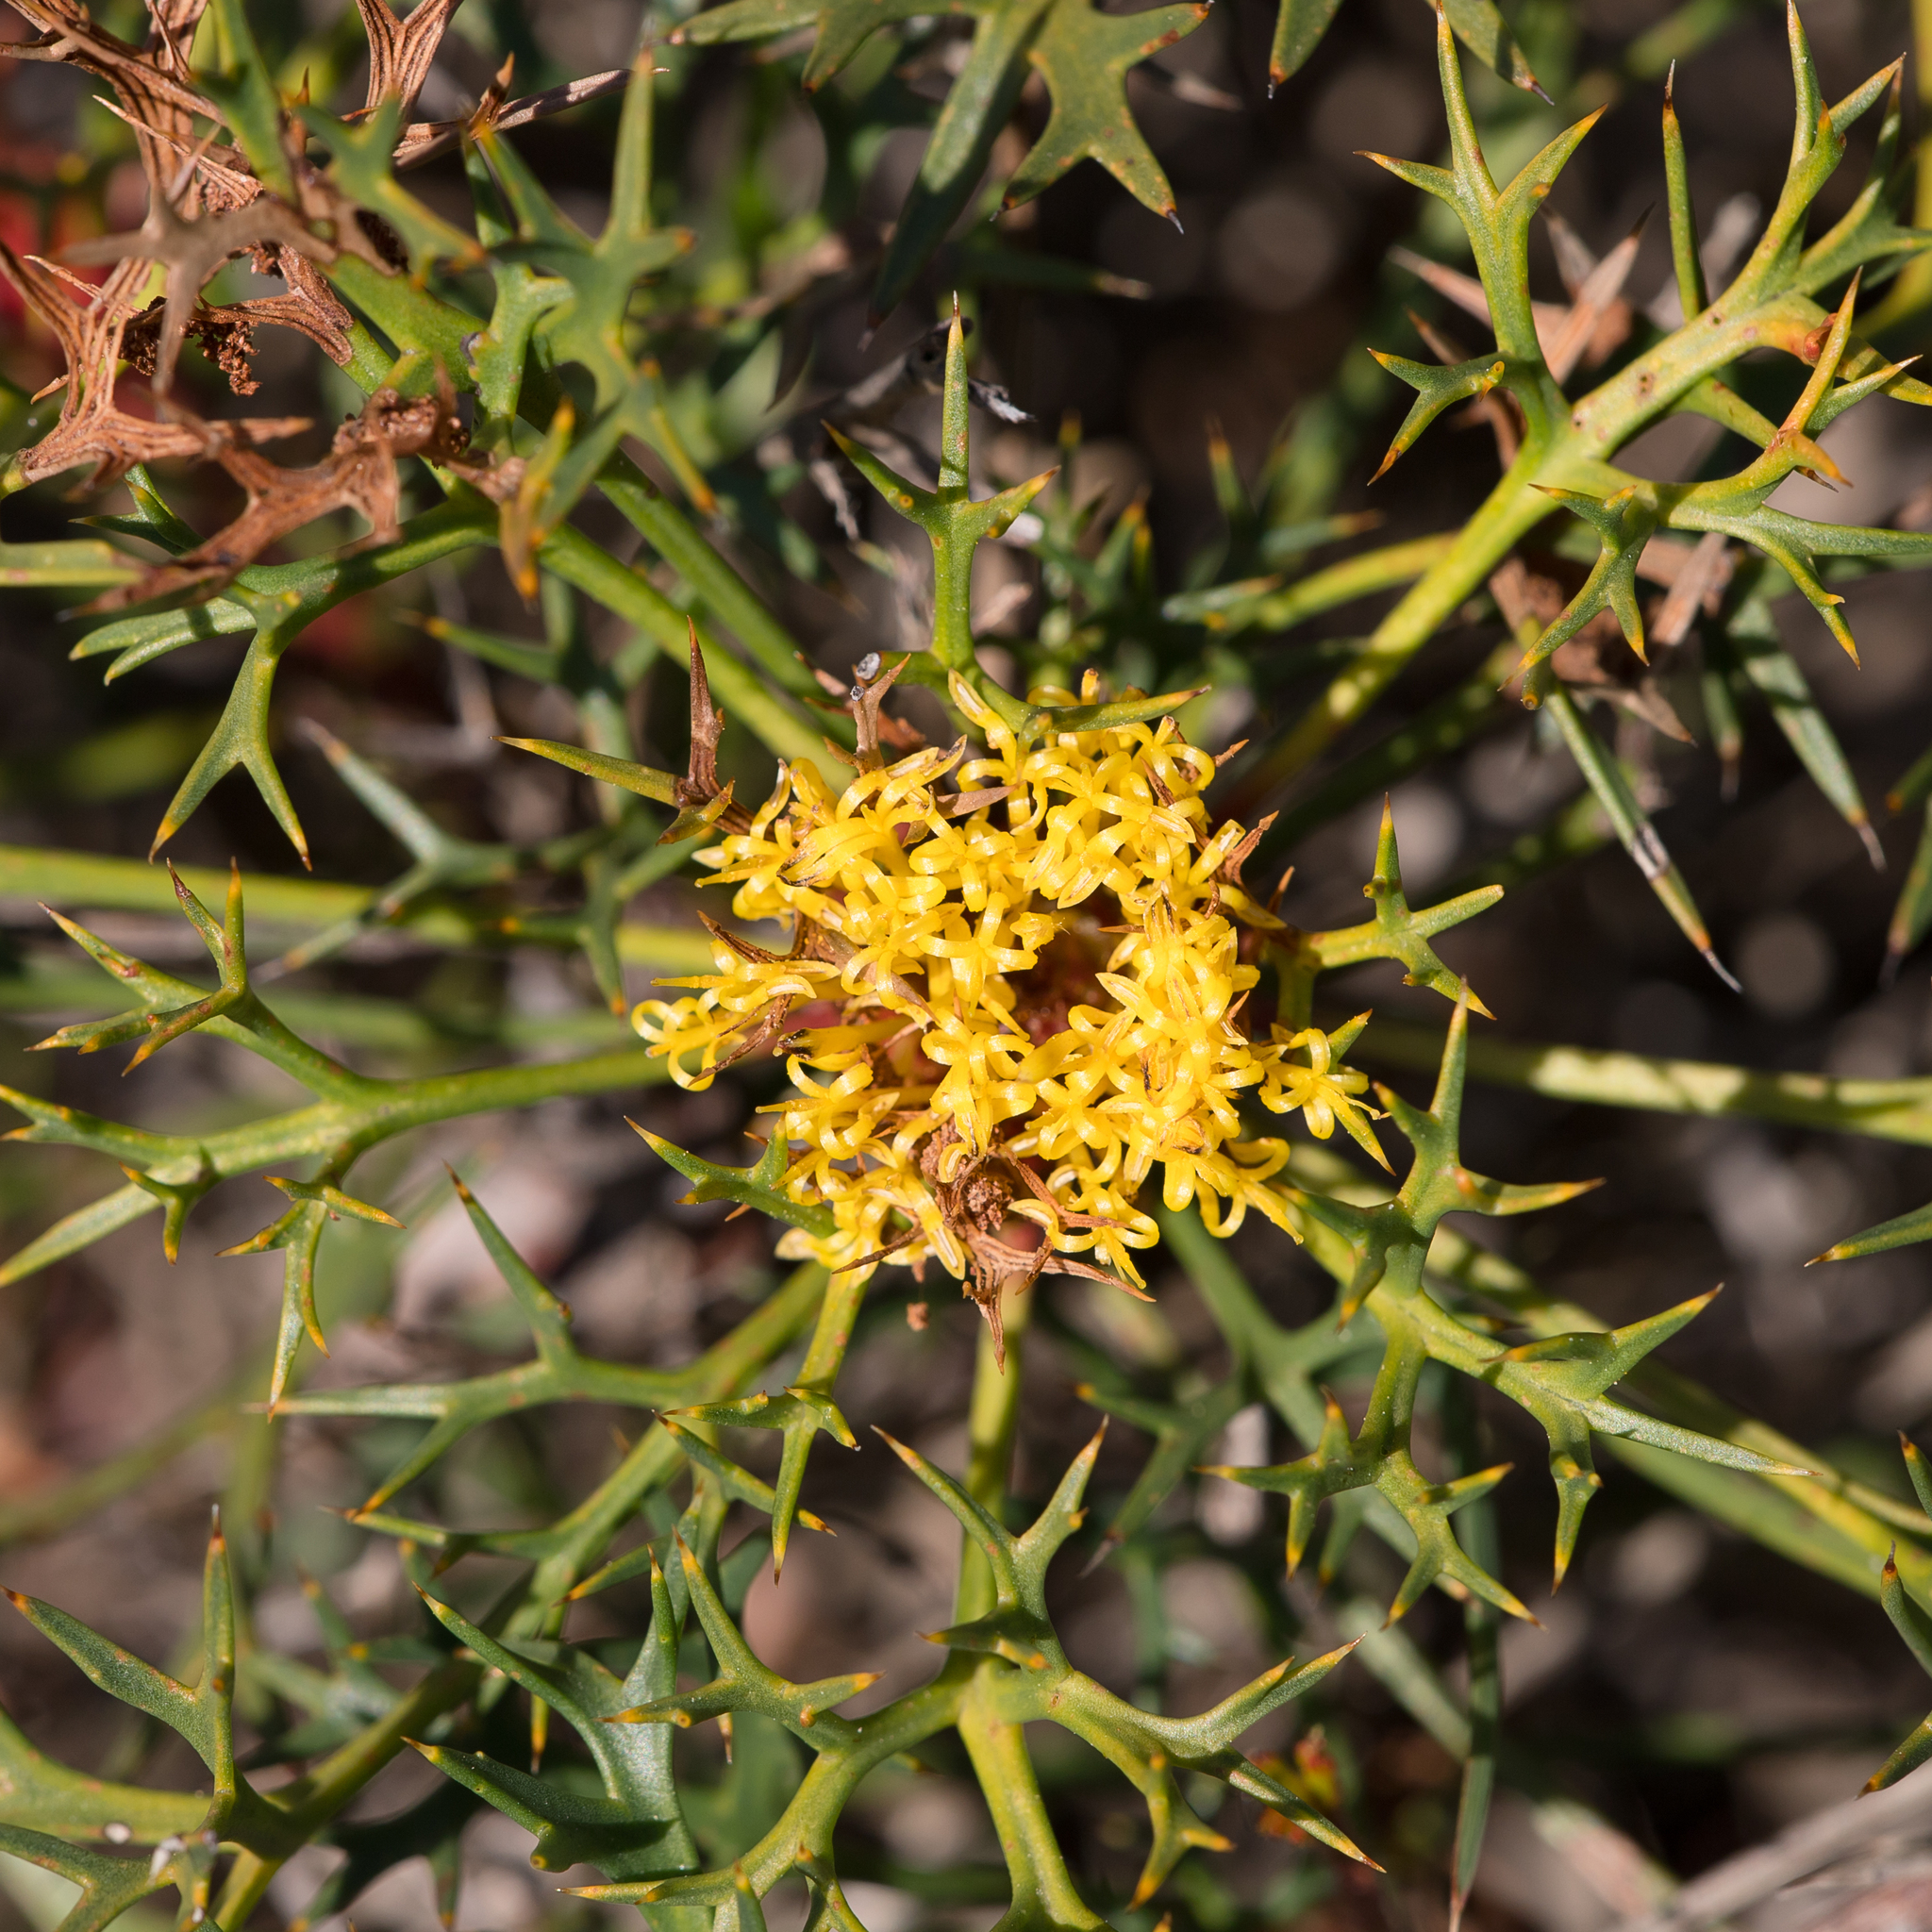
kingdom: Plantae
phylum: Tracheophyta
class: Magnoliopsida
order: Proteales
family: Proteaceae
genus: Isopogon
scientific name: Isopogon ceratophyllus
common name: Horny cone-bush
